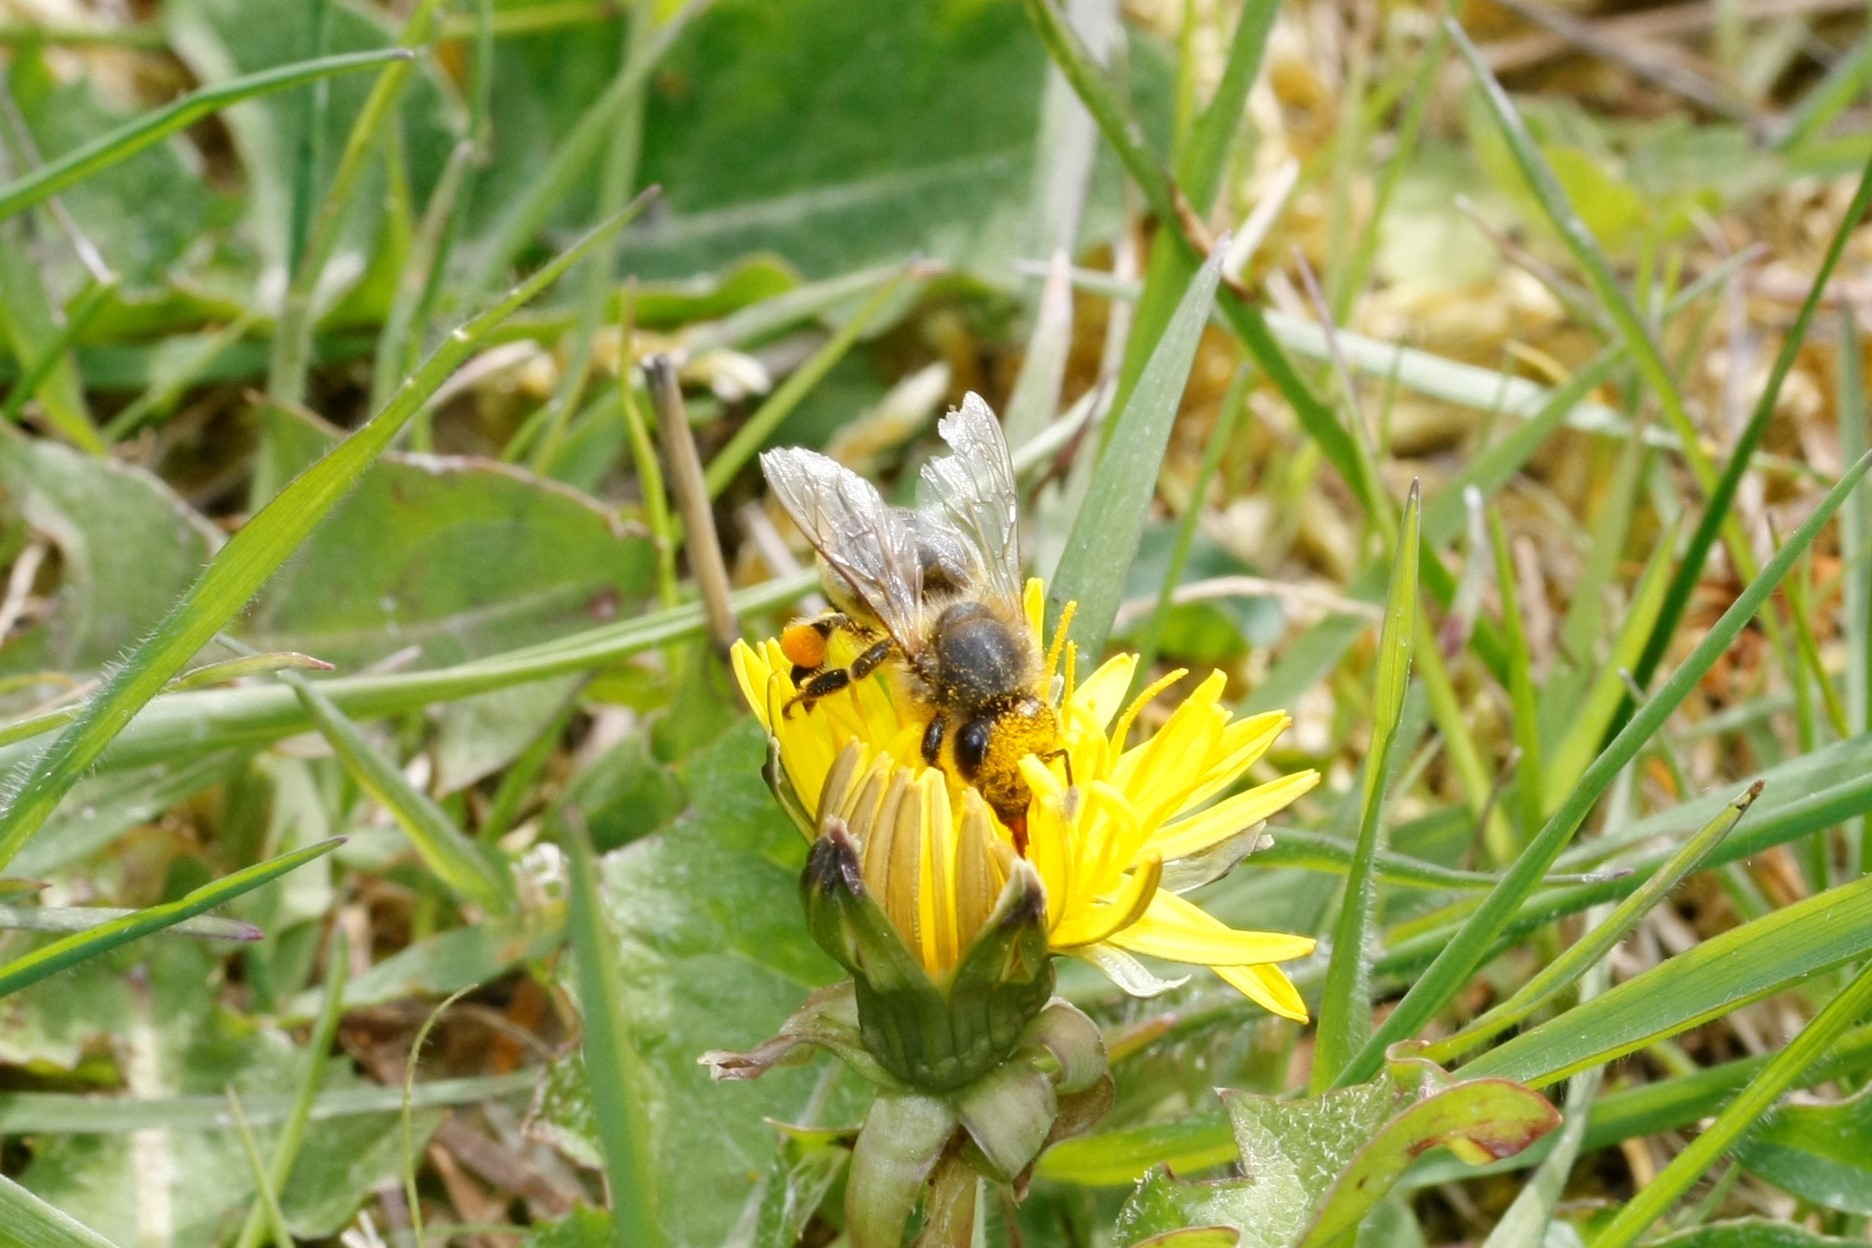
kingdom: Animalia
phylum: Arthropoda
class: Insecta
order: Hymenoptera
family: Apidae
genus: Apis
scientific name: Apis mellifera
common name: Honey bee
